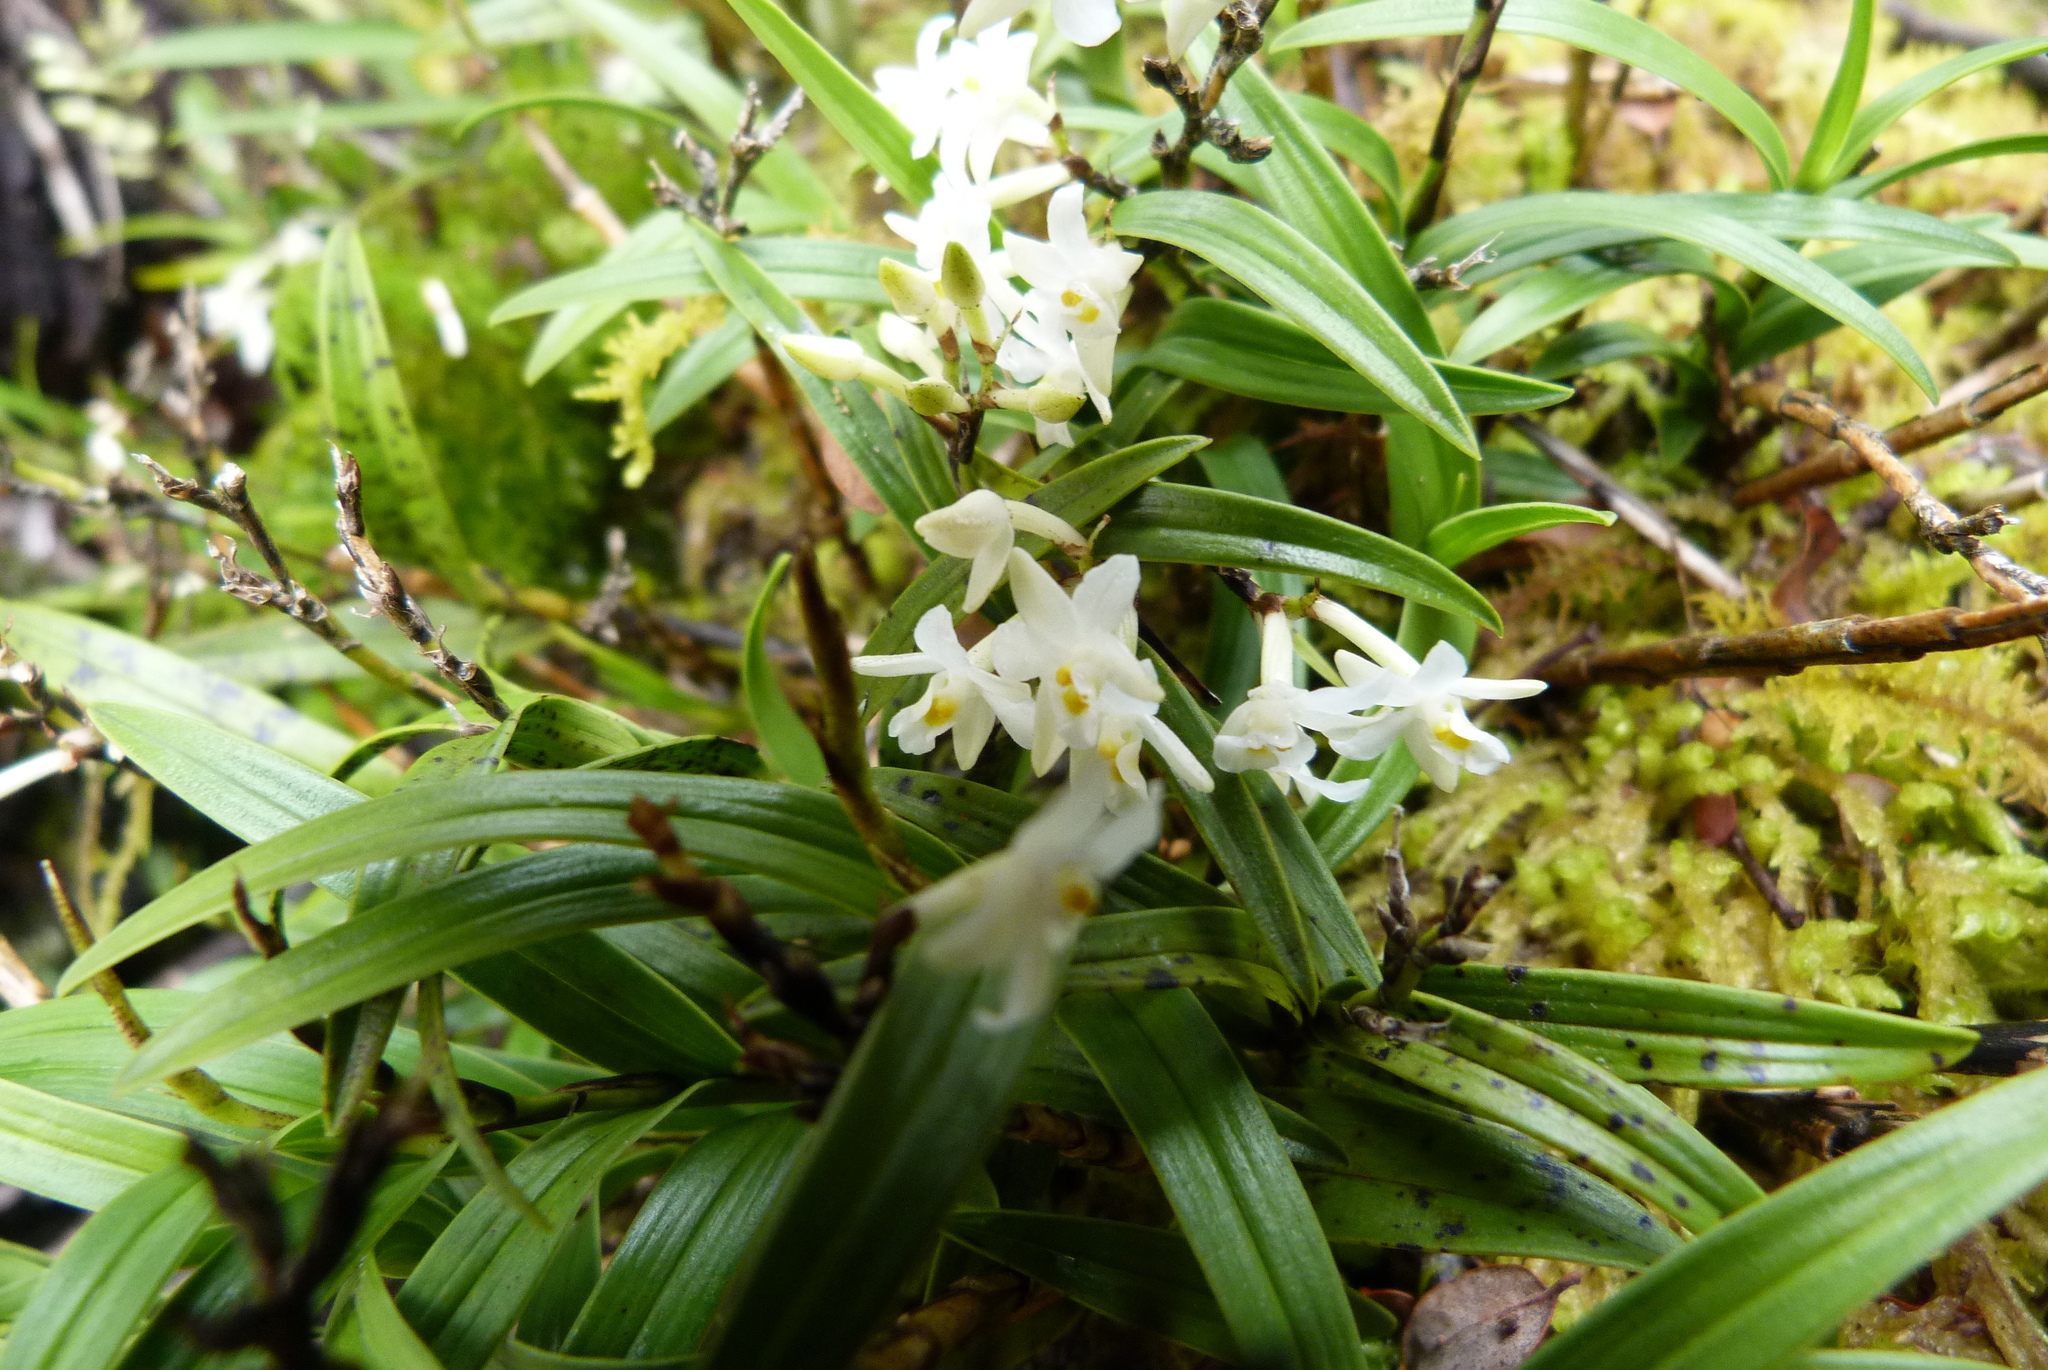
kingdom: Plantae
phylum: Tracheophyta
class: Liliopsida
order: Asparagales
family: Orchidaceae
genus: Earina
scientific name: Earina autumnalis
